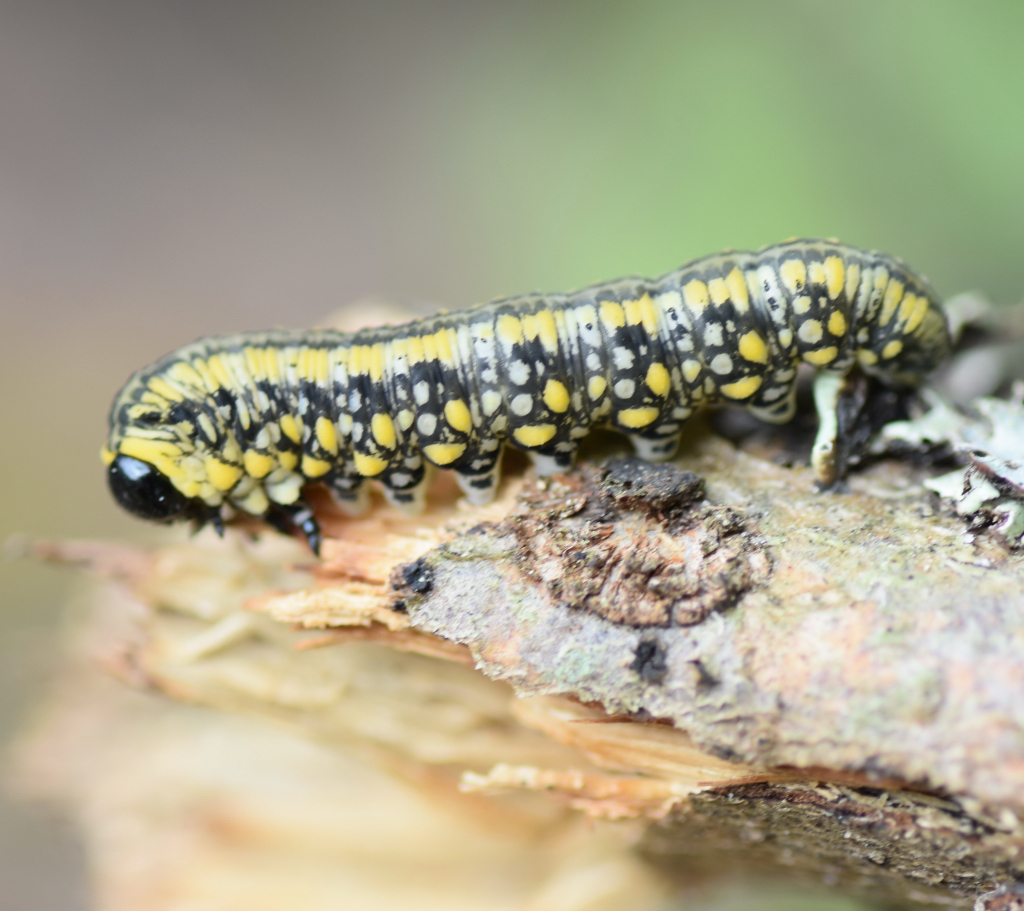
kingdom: Animalia
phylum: Arthropoda
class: Insecta
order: Hymenoptera
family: Diprionidae
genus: Diprion
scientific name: Diprion similis
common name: Pine sawfly
